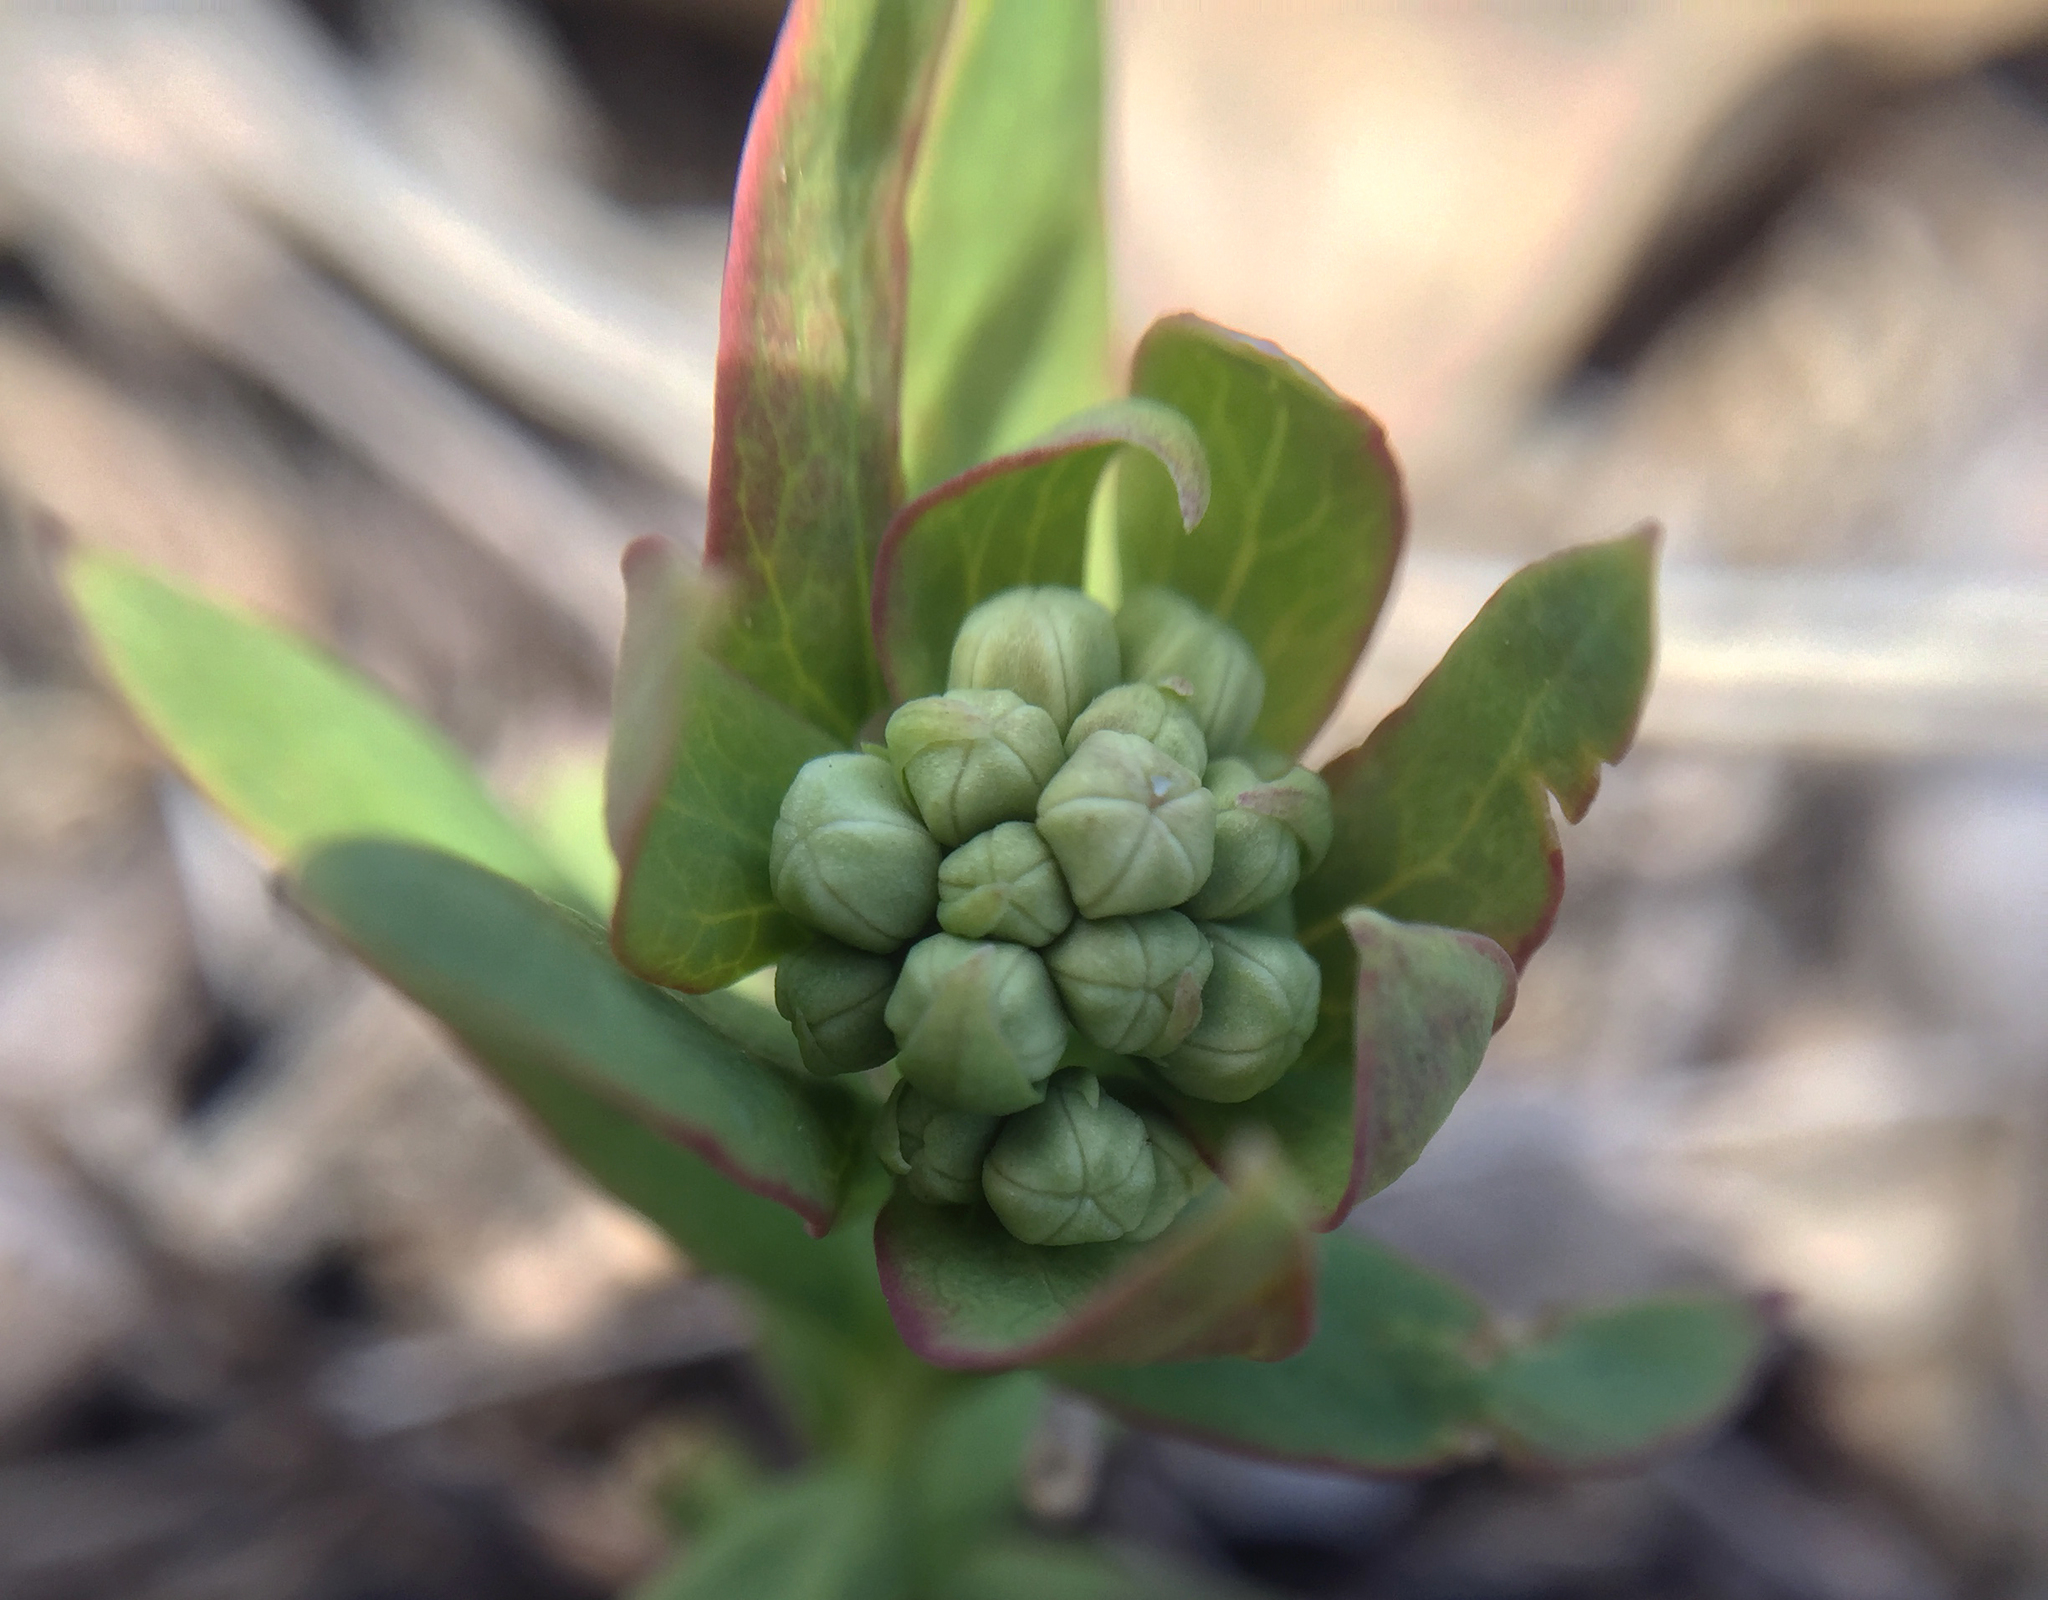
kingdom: Plantae
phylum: Tracheophyta
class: Magnoliopsida
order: Santalales
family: Comandraceae
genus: Comandra
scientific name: Comandra umbellata
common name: Bastard toadflax
